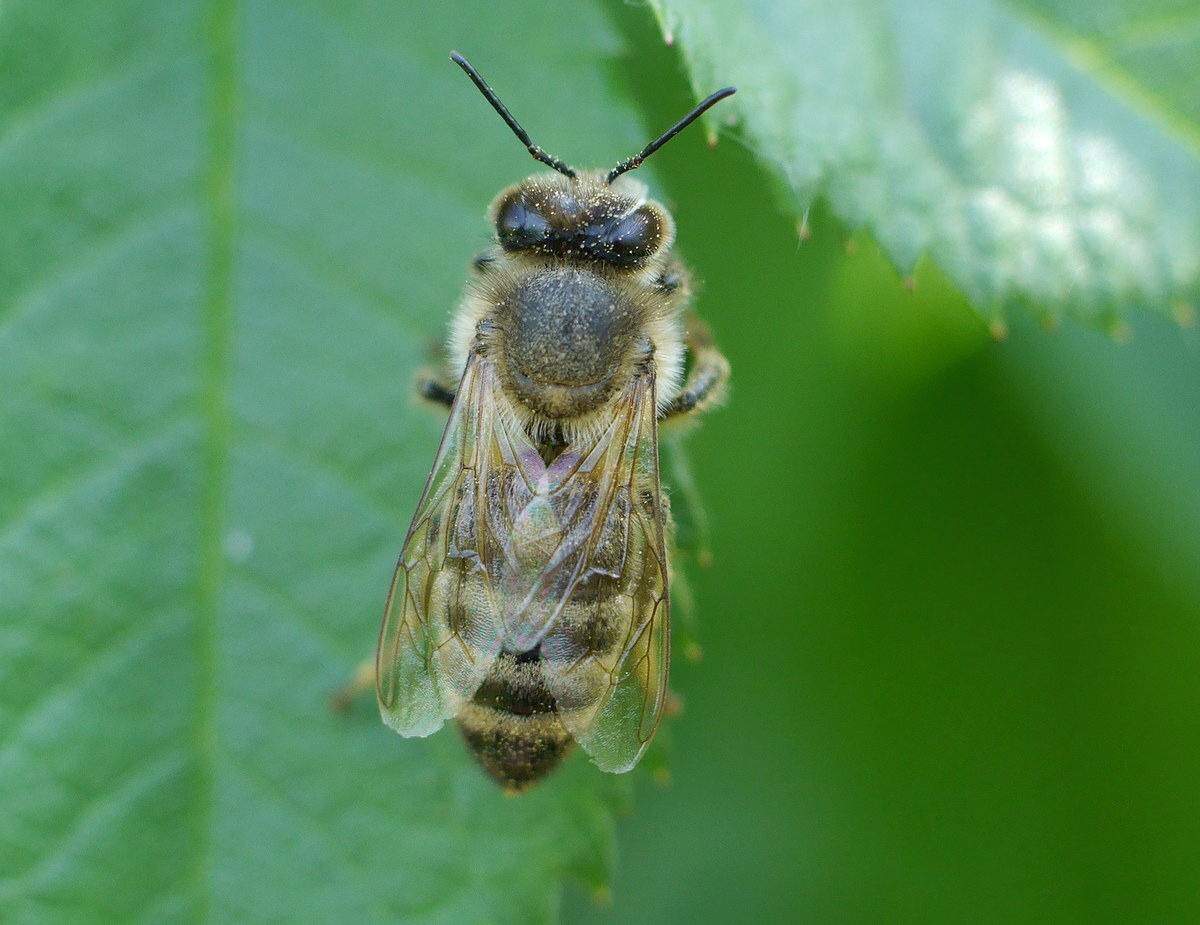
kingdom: Animalia
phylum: Arthropoda
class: Insecta
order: Hymenoptera
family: Apidae
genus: Apis
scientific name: Apis mellifera
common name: Honey bee
